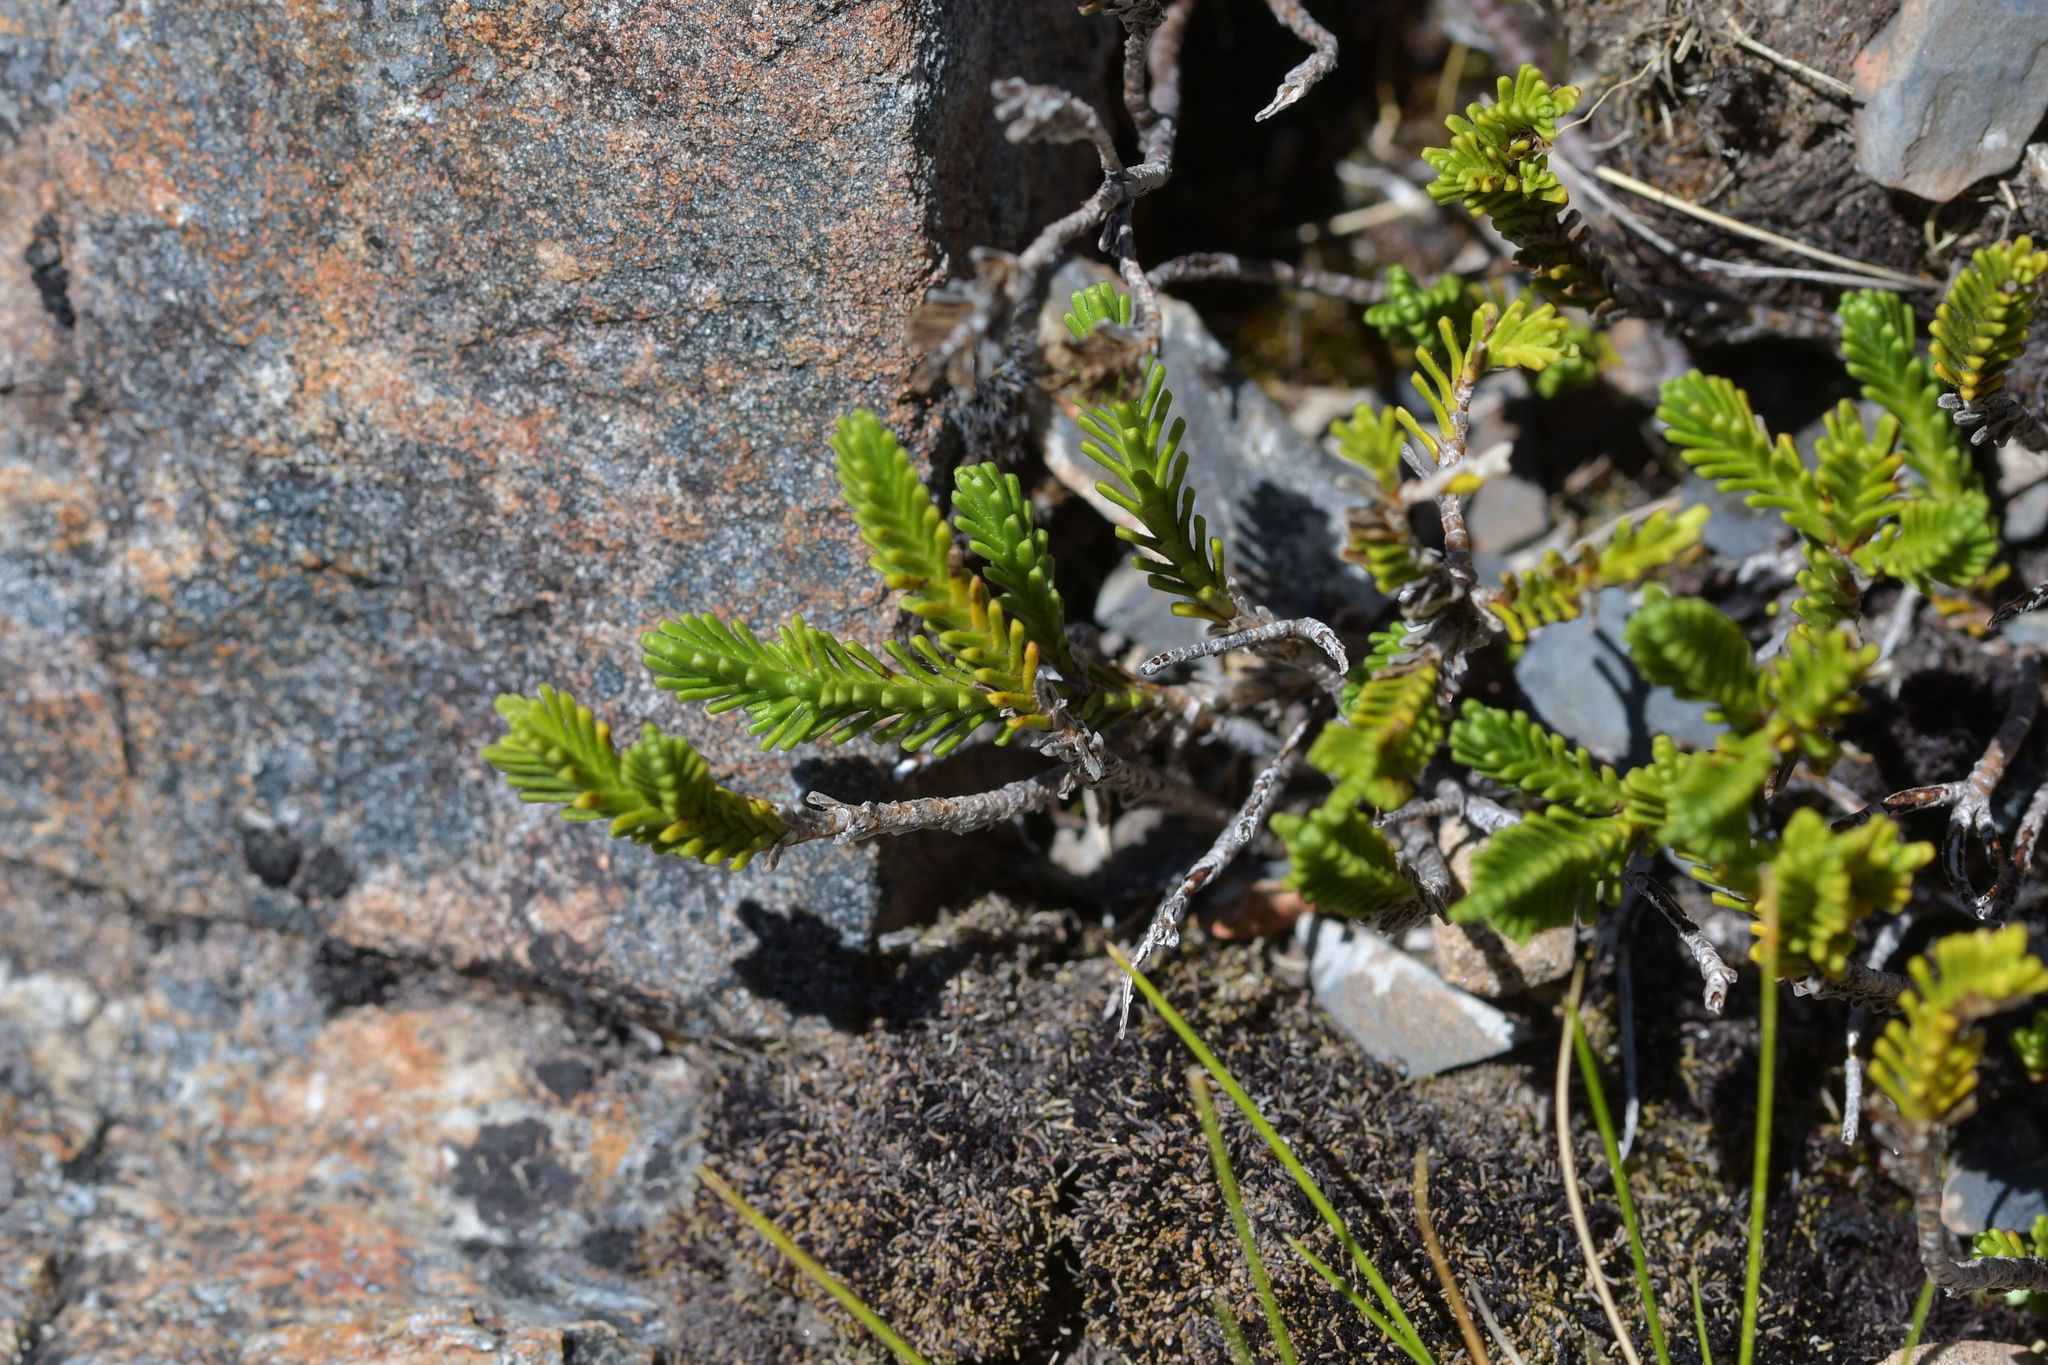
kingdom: Plantae
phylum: Tracheophyta
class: Magnoliopsida
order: Lamiales
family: Plantaginaceae
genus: Veronica
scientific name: Veronica hookeri
